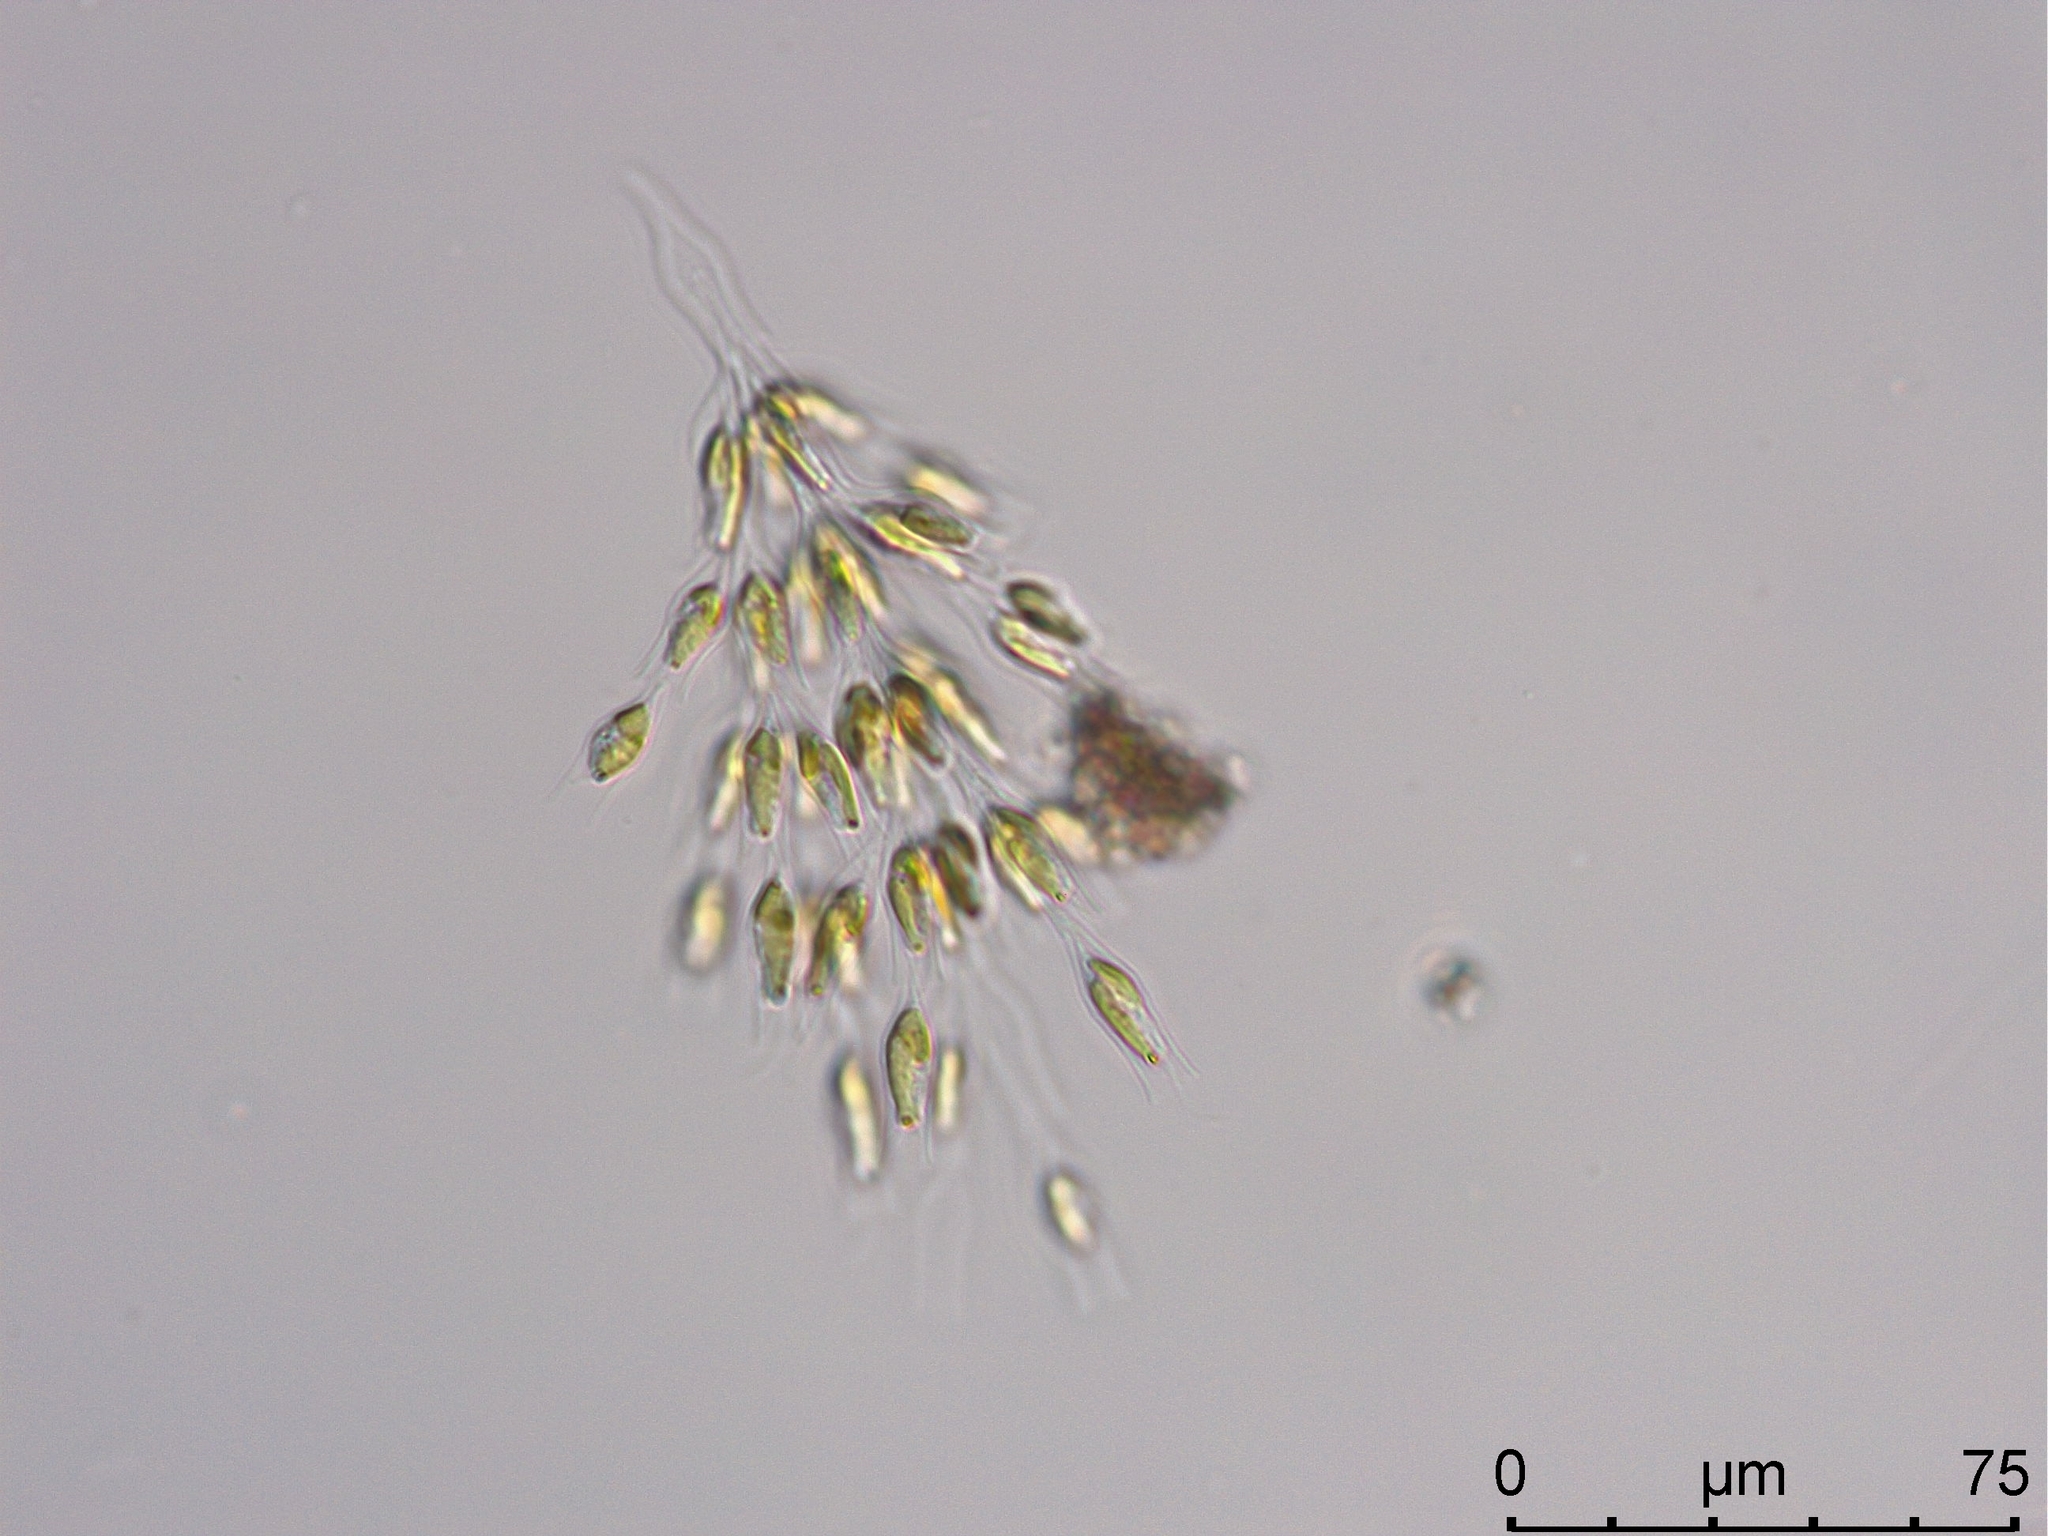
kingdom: Chromista
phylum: Ochrophyta
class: Chrysophyceae
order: Chromulinales
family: Dinobryaceae
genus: Dinobryon
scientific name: Dinobryon divergens
